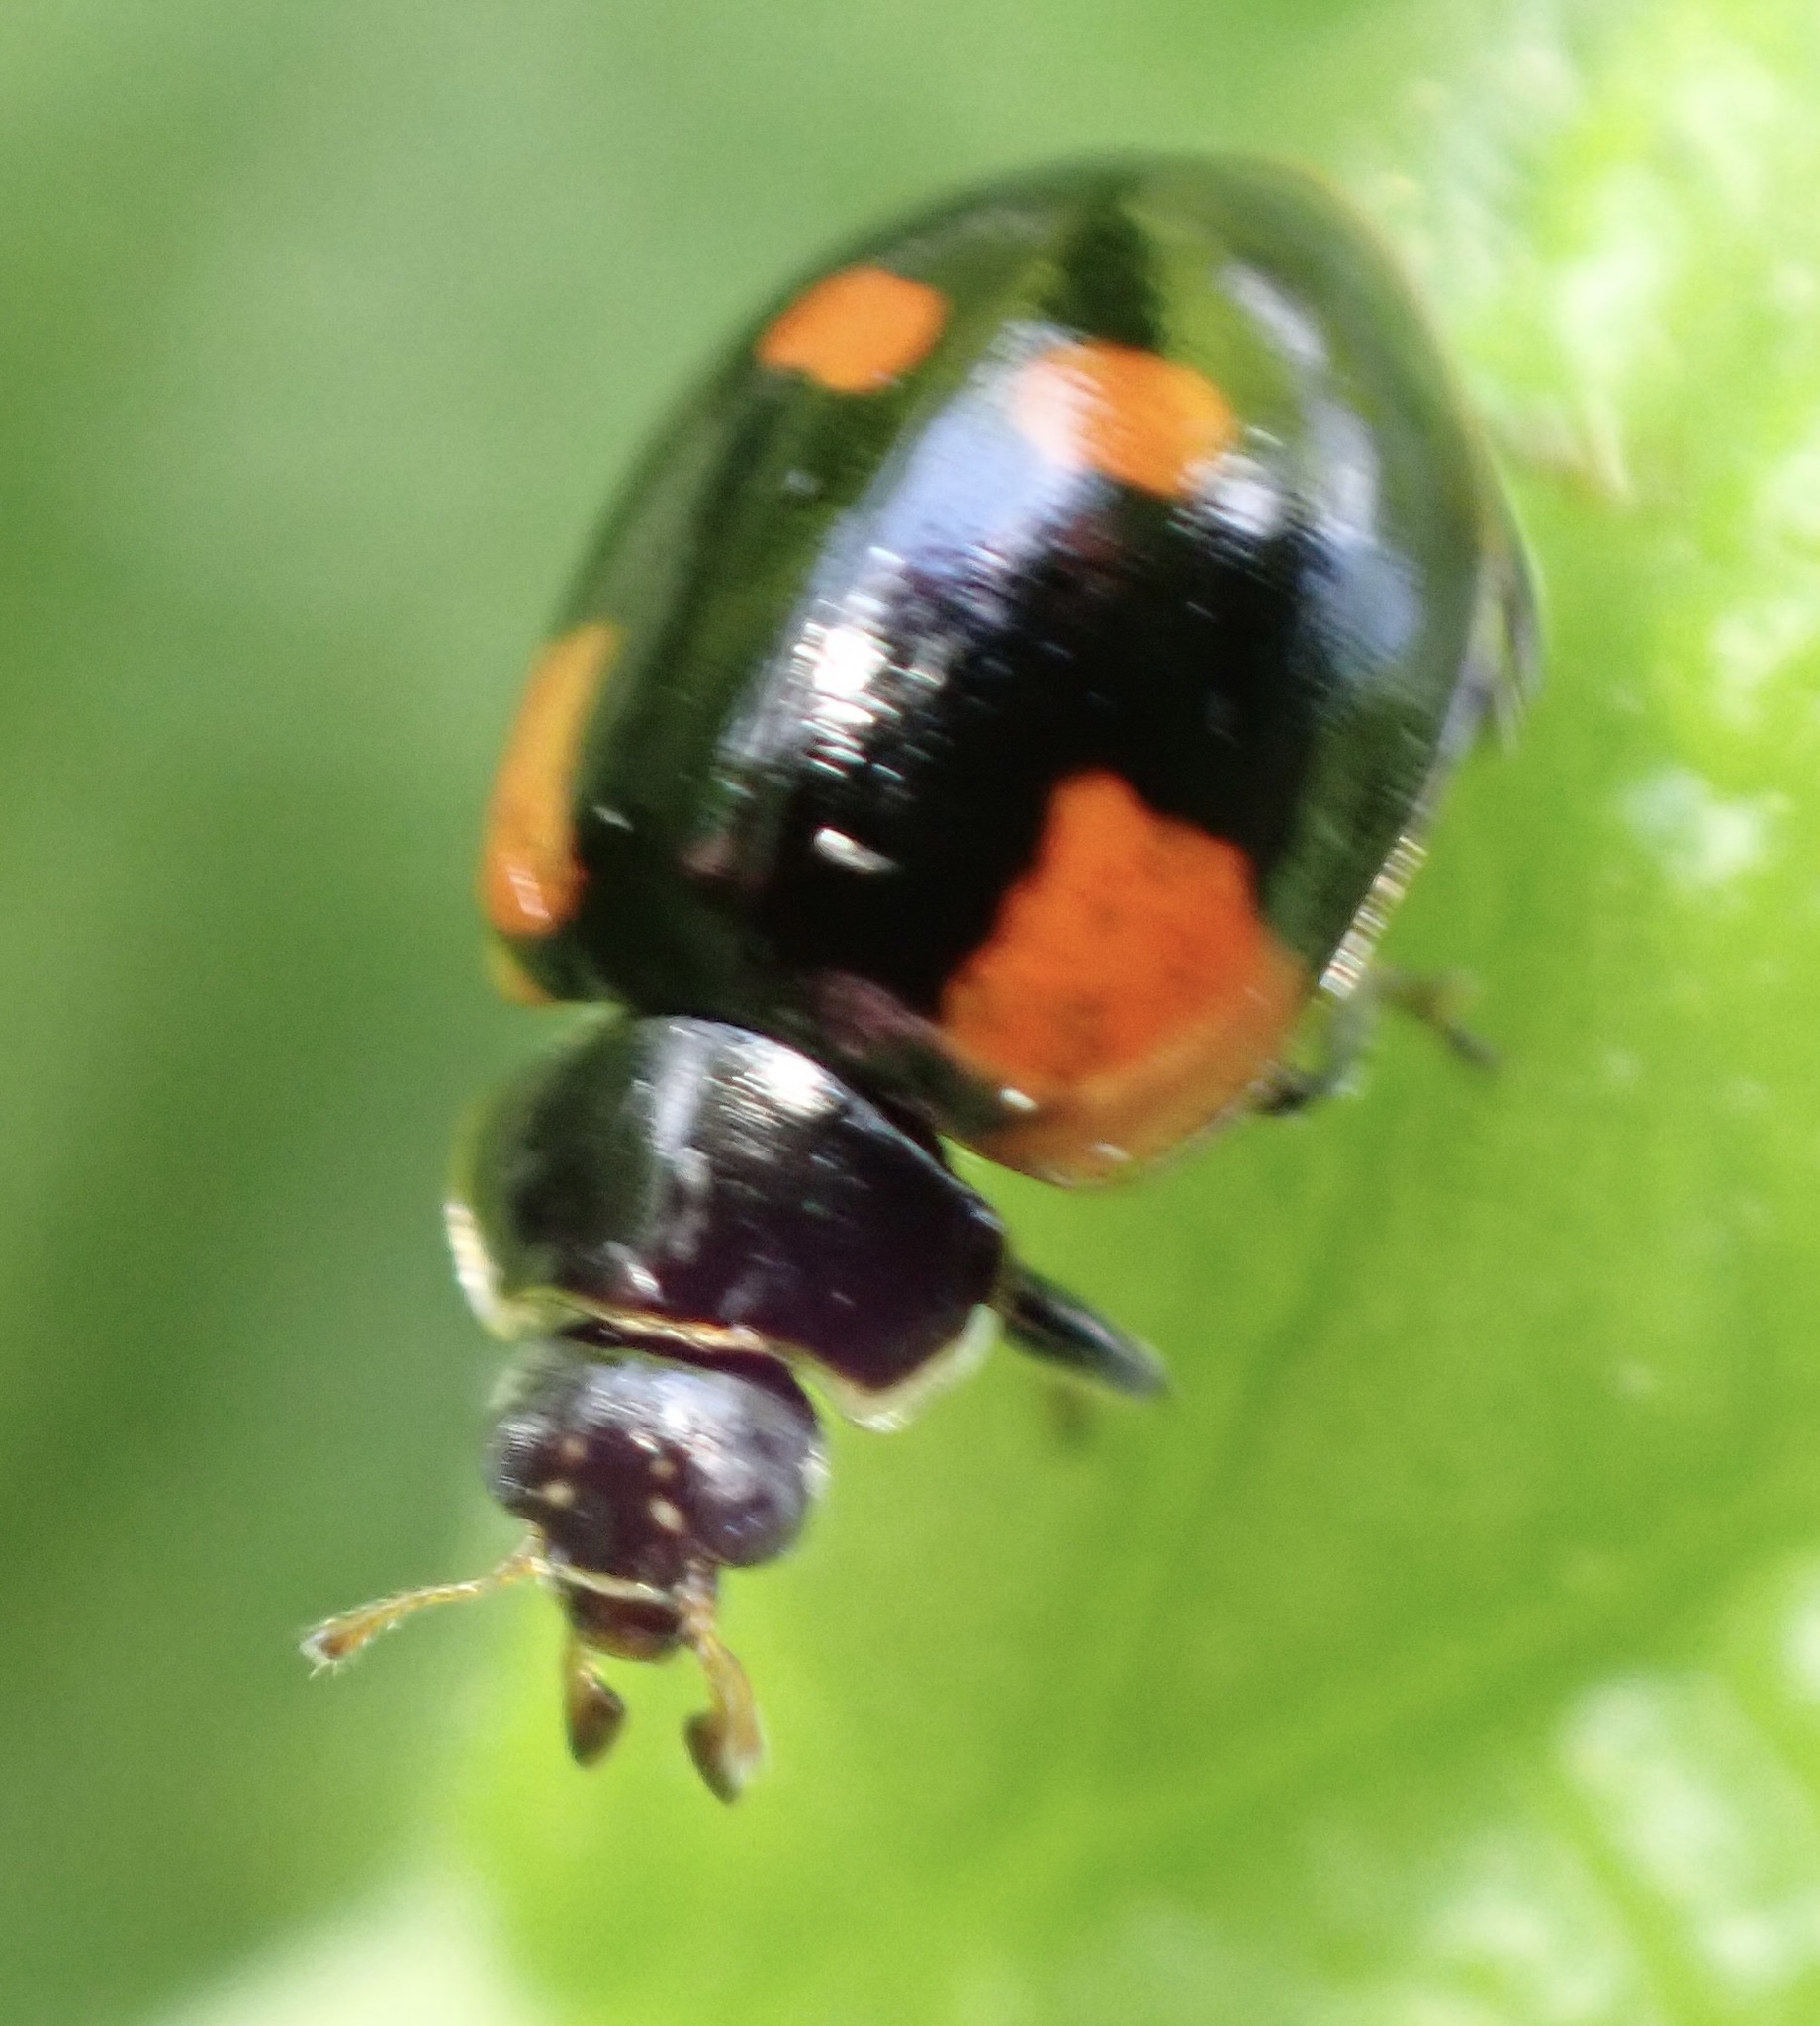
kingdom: Animalia
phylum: Arthropoda
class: Insecta
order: Coleoptera
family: Coccinellidae
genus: Adalia
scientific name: Adalia bipunctata
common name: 2-spot ladybird
